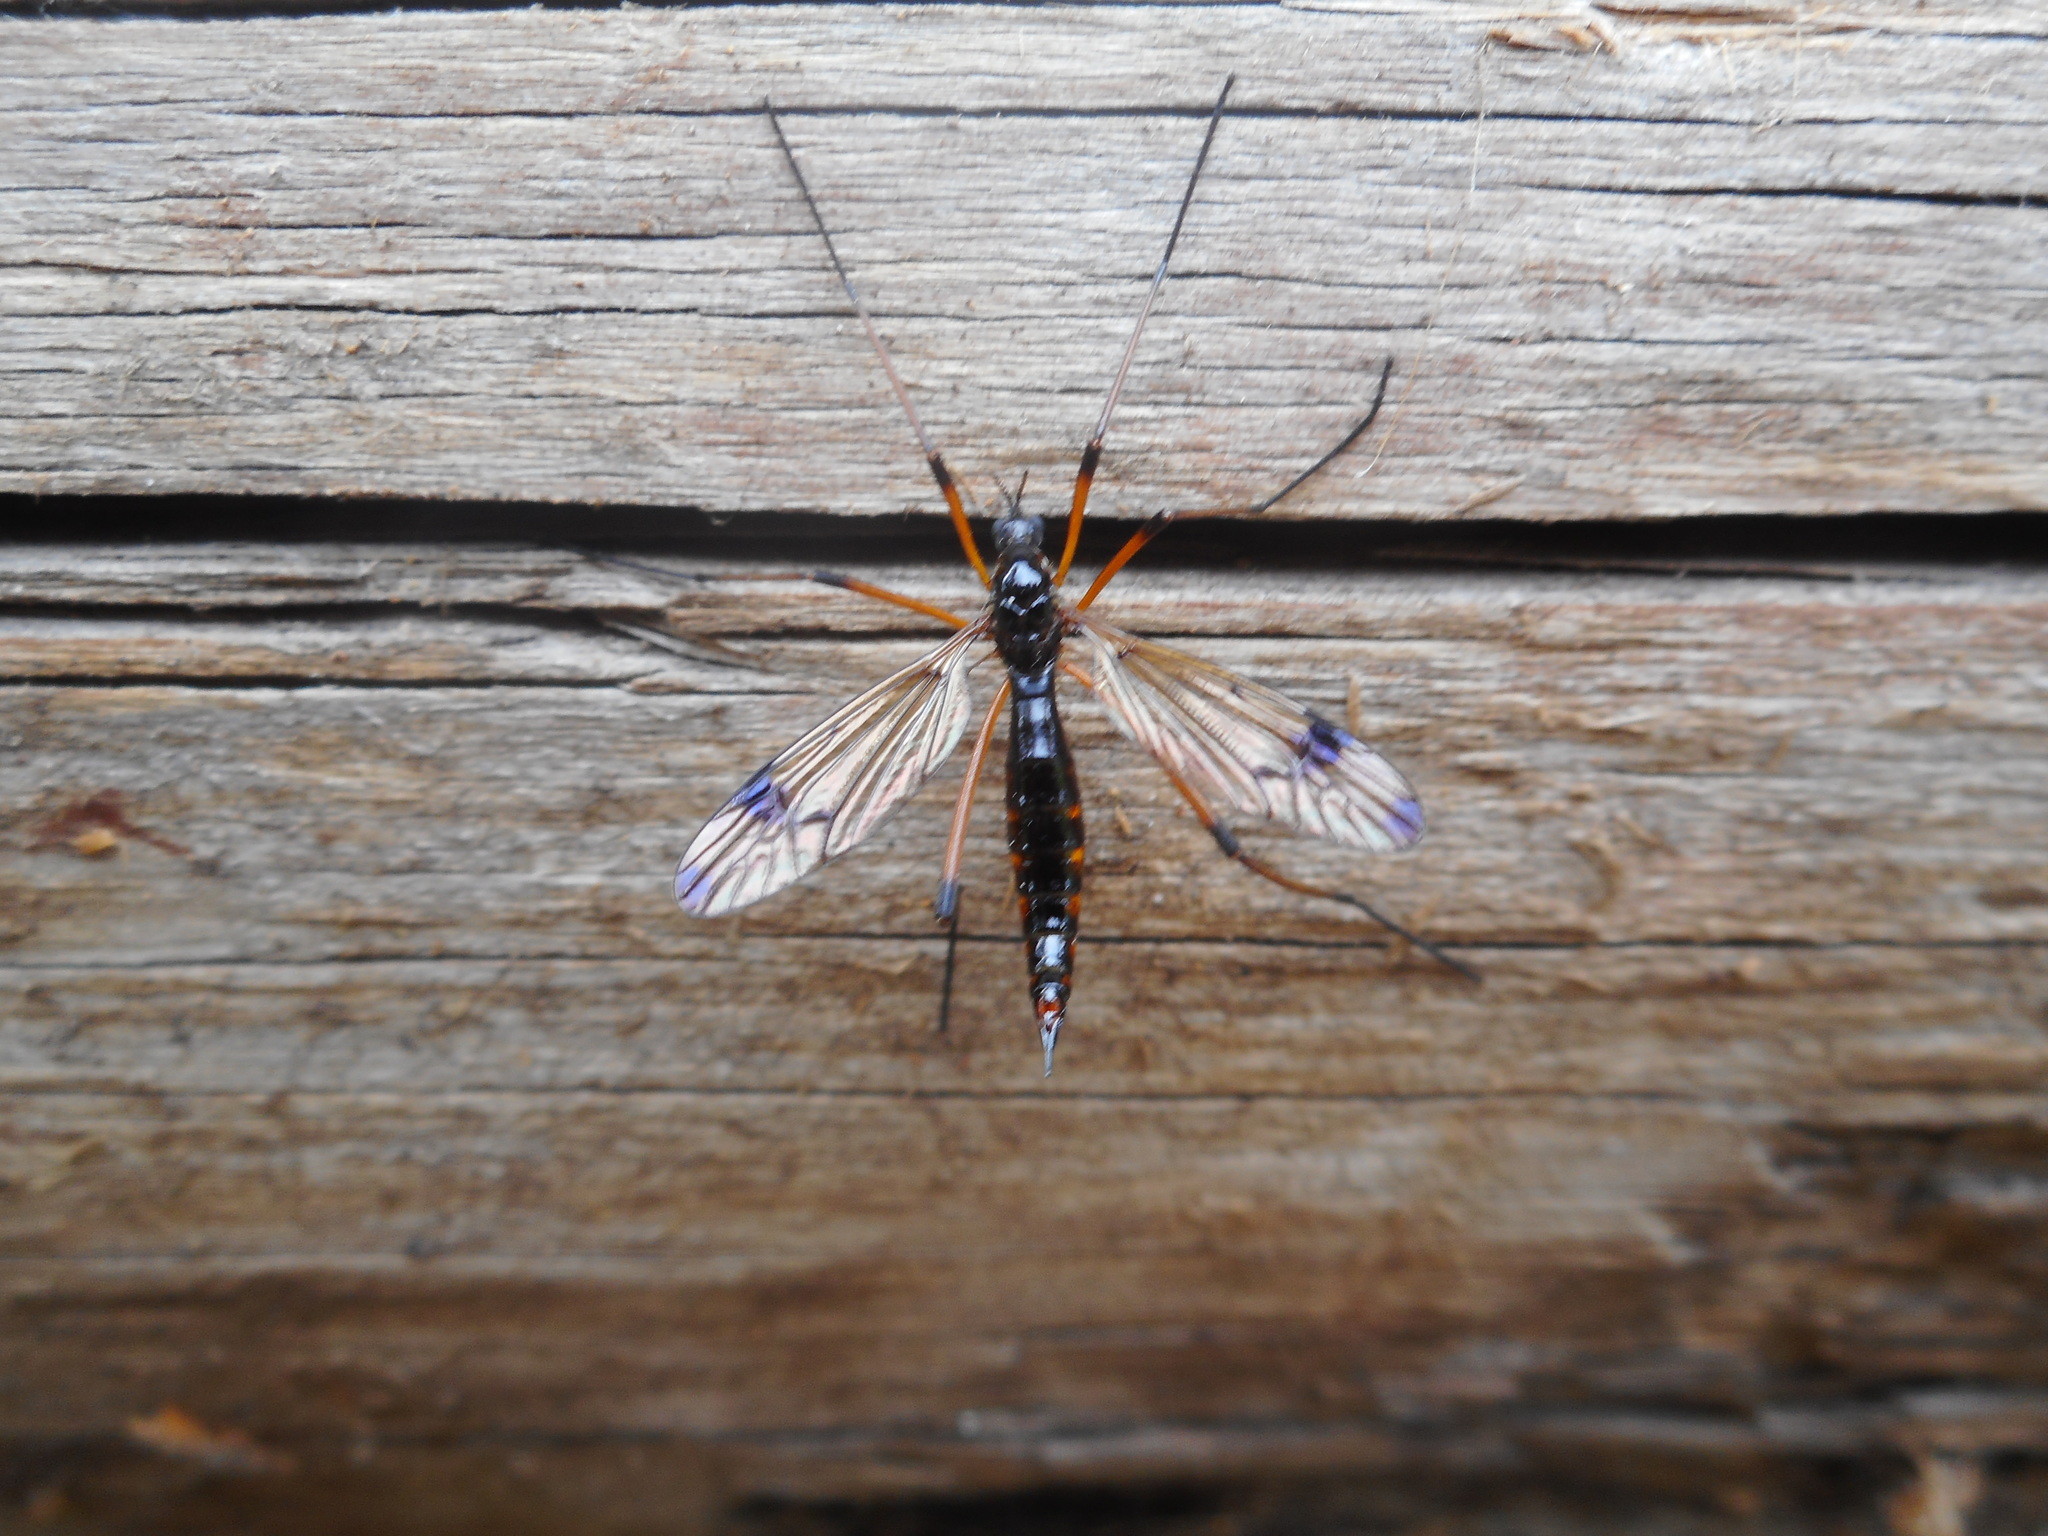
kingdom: Animalia
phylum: Arthropoda
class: Insecta
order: Diptera
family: Tipulidae
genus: Dictenidia
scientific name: Dictenidia bimaculata
